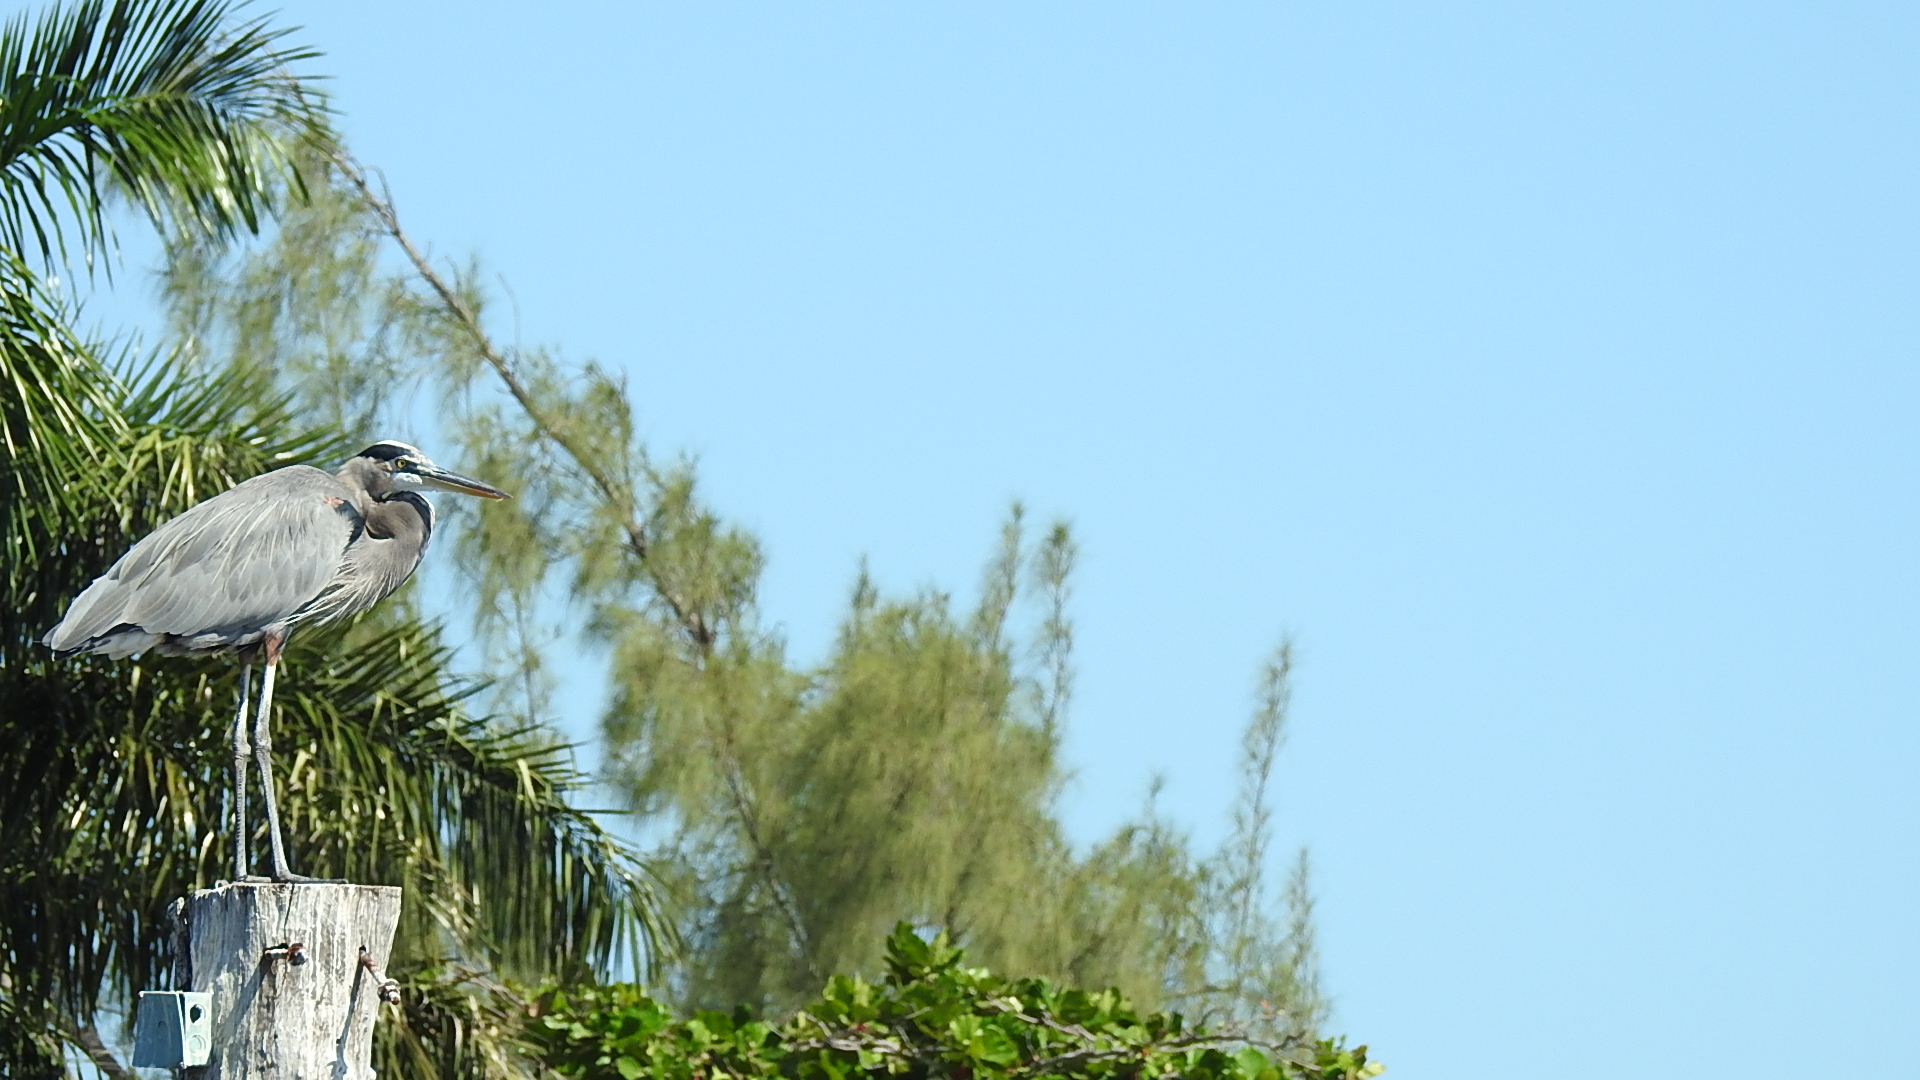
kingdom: Animalia
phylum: Chordata
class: Aves
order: Pelecaniformes
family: Ardeidae
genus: Ardea
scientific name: Ardea herodias
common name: Great blue heron
